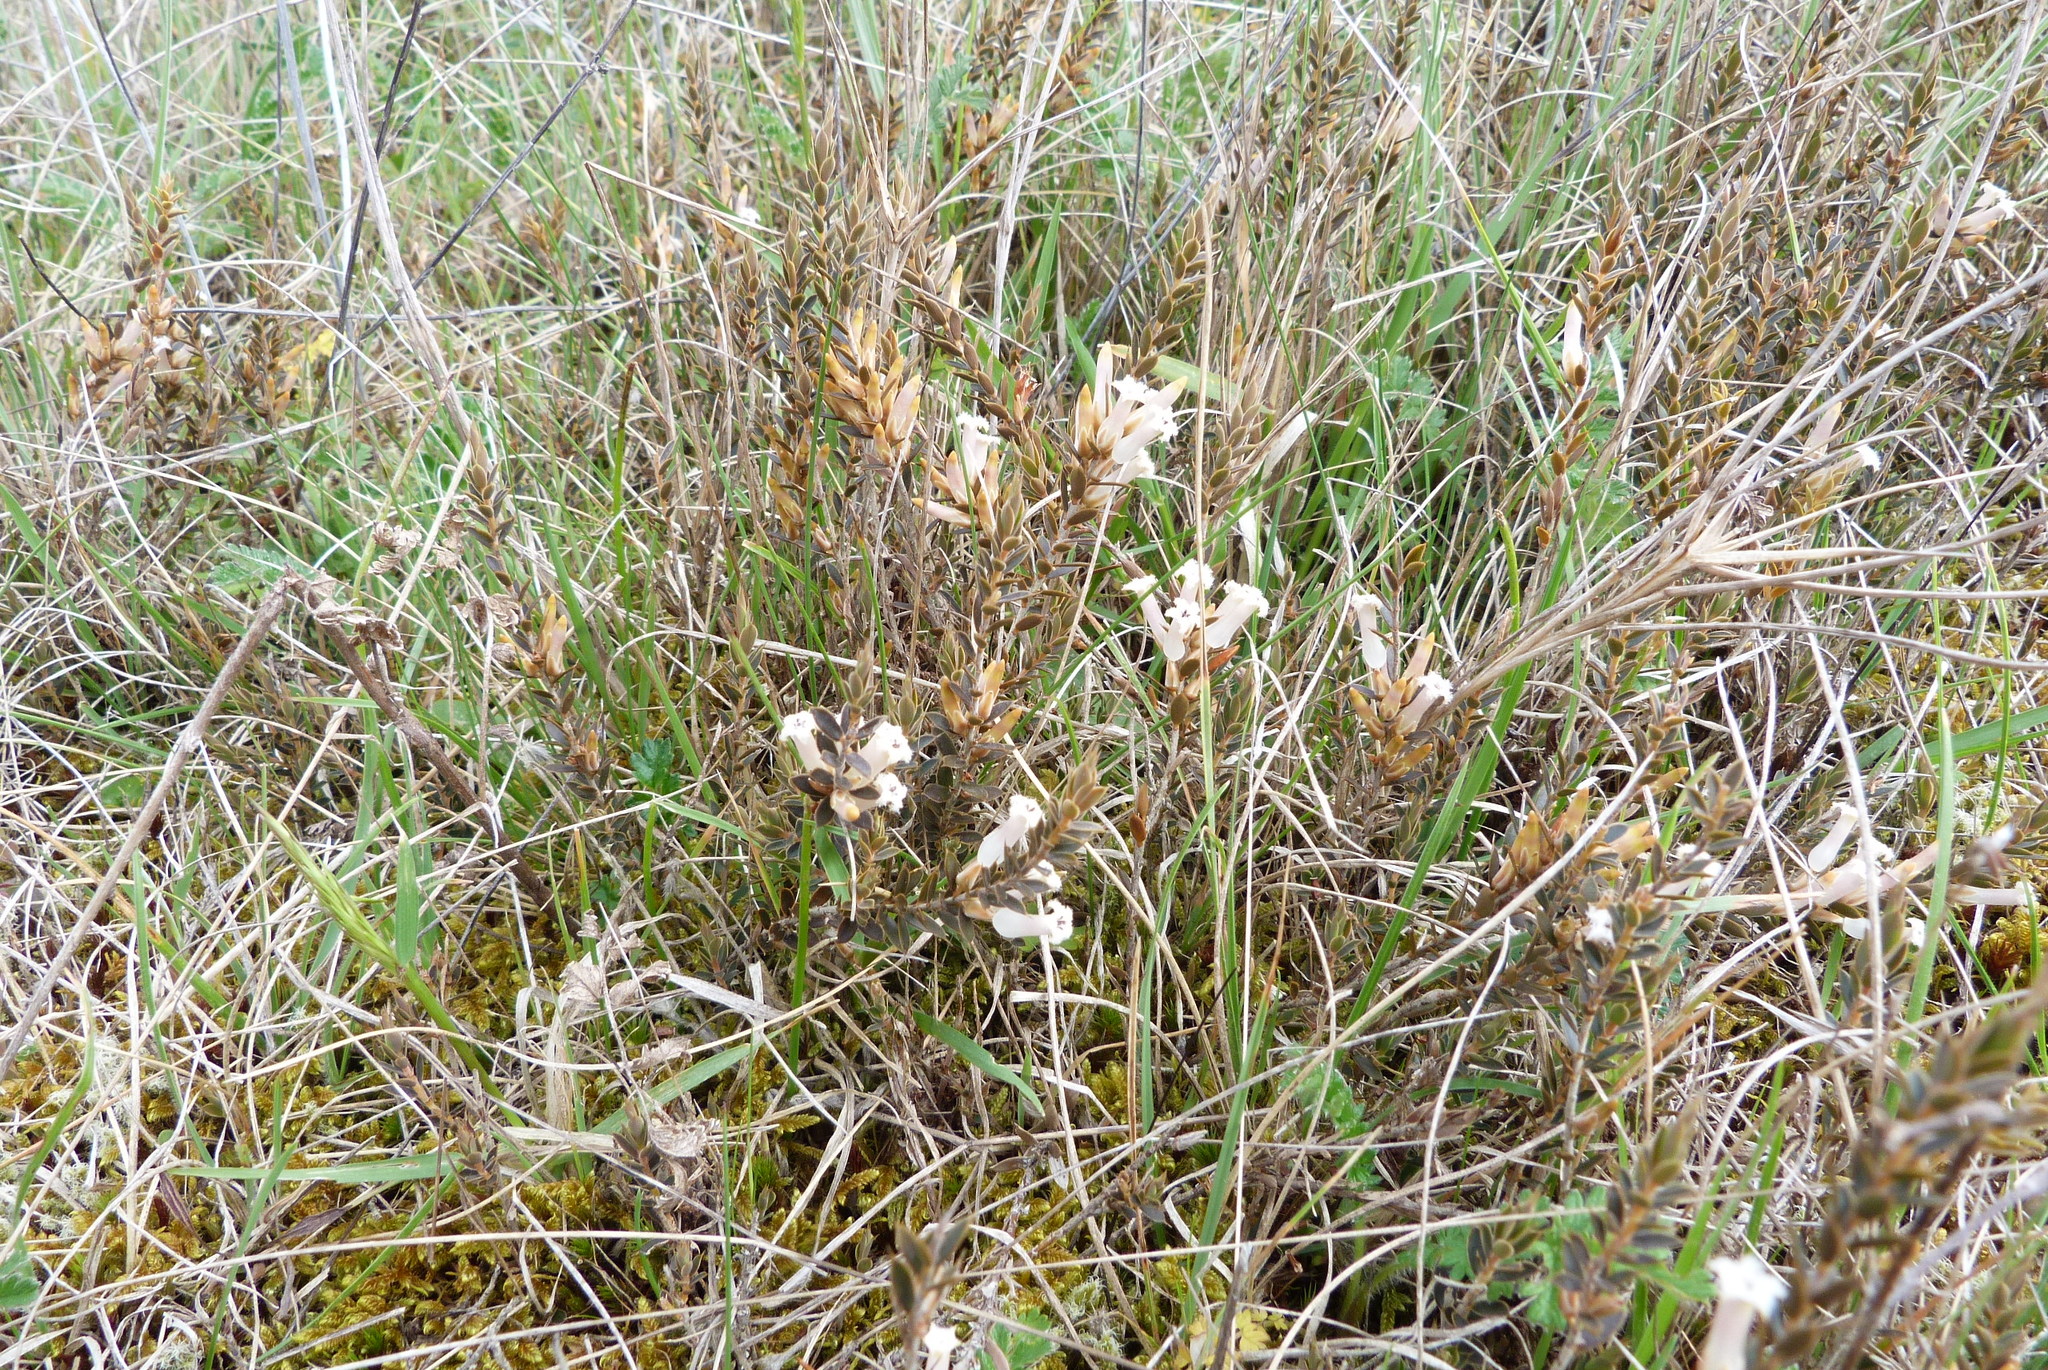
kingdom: Plantae
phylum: Tracheophyta
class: Magnoliopsida
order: Ericales
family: Ericaceae
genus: Styphelia
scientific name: Styphelia nesophila
